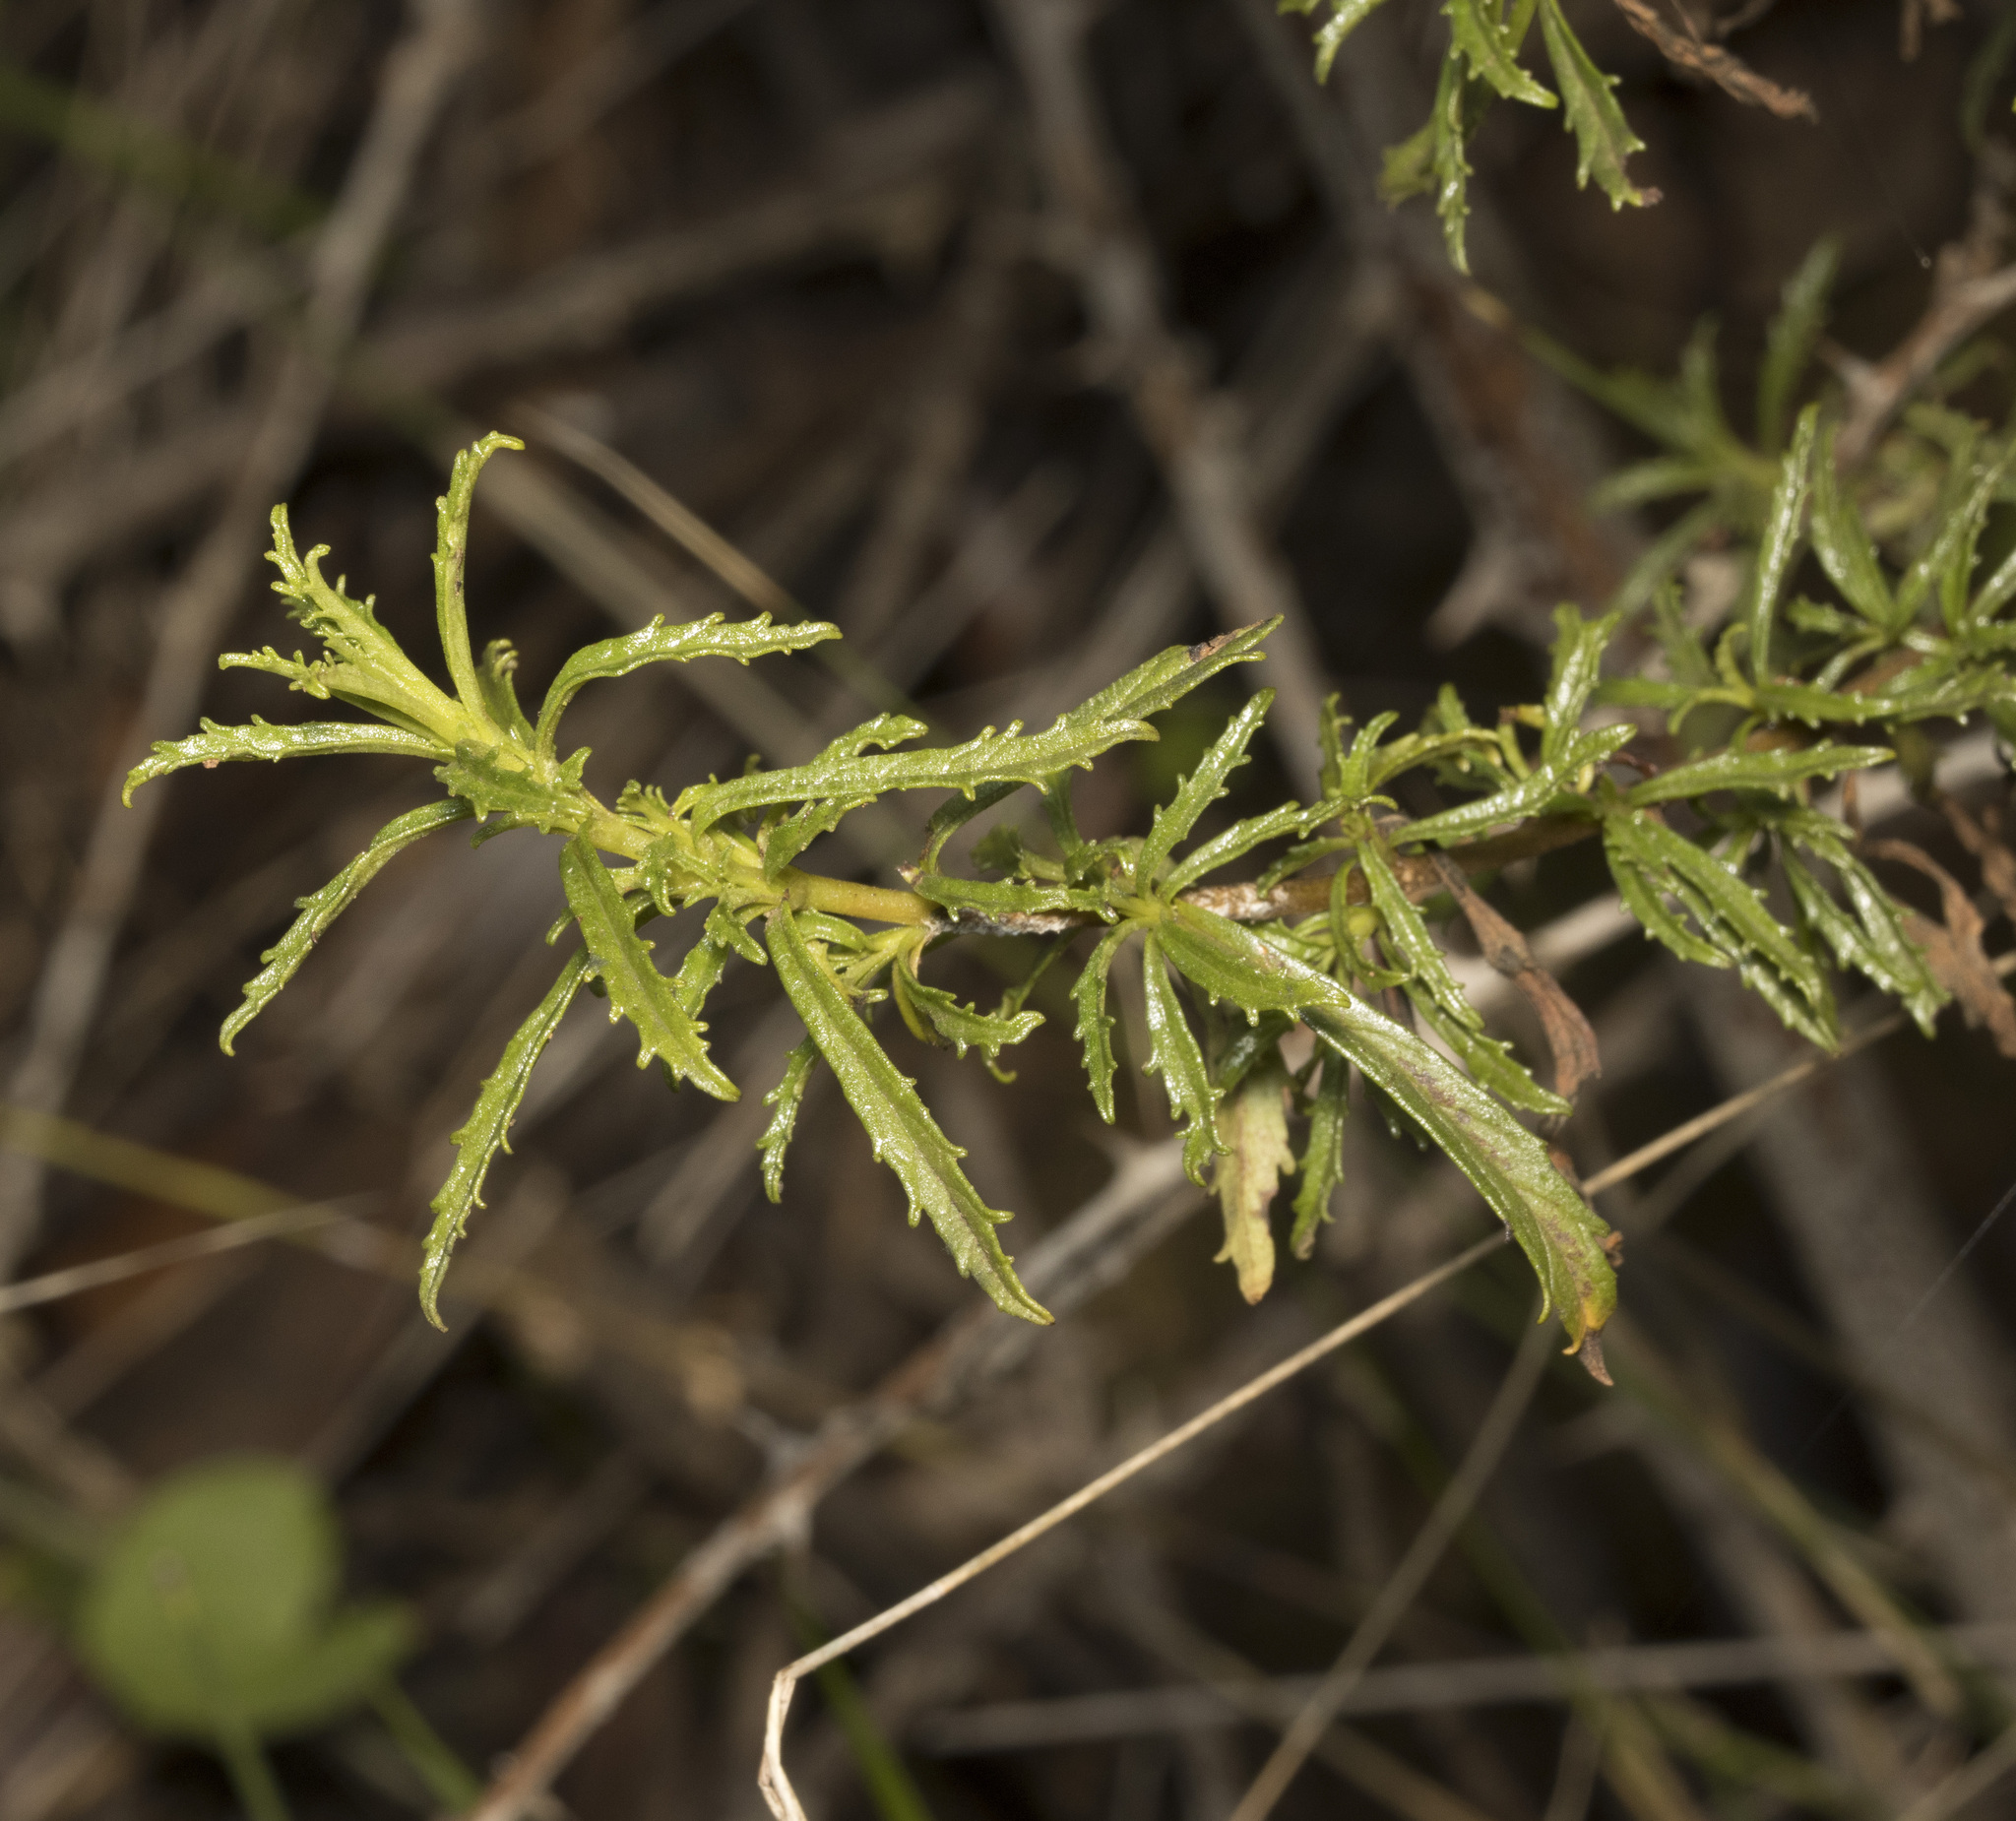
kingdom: Plantae
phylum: Tracheophyta
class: Magnoliopsida
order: Lamiales
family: Calceolariaceae
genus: Calceolaria
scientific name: Calceolaria thyrsiflora
